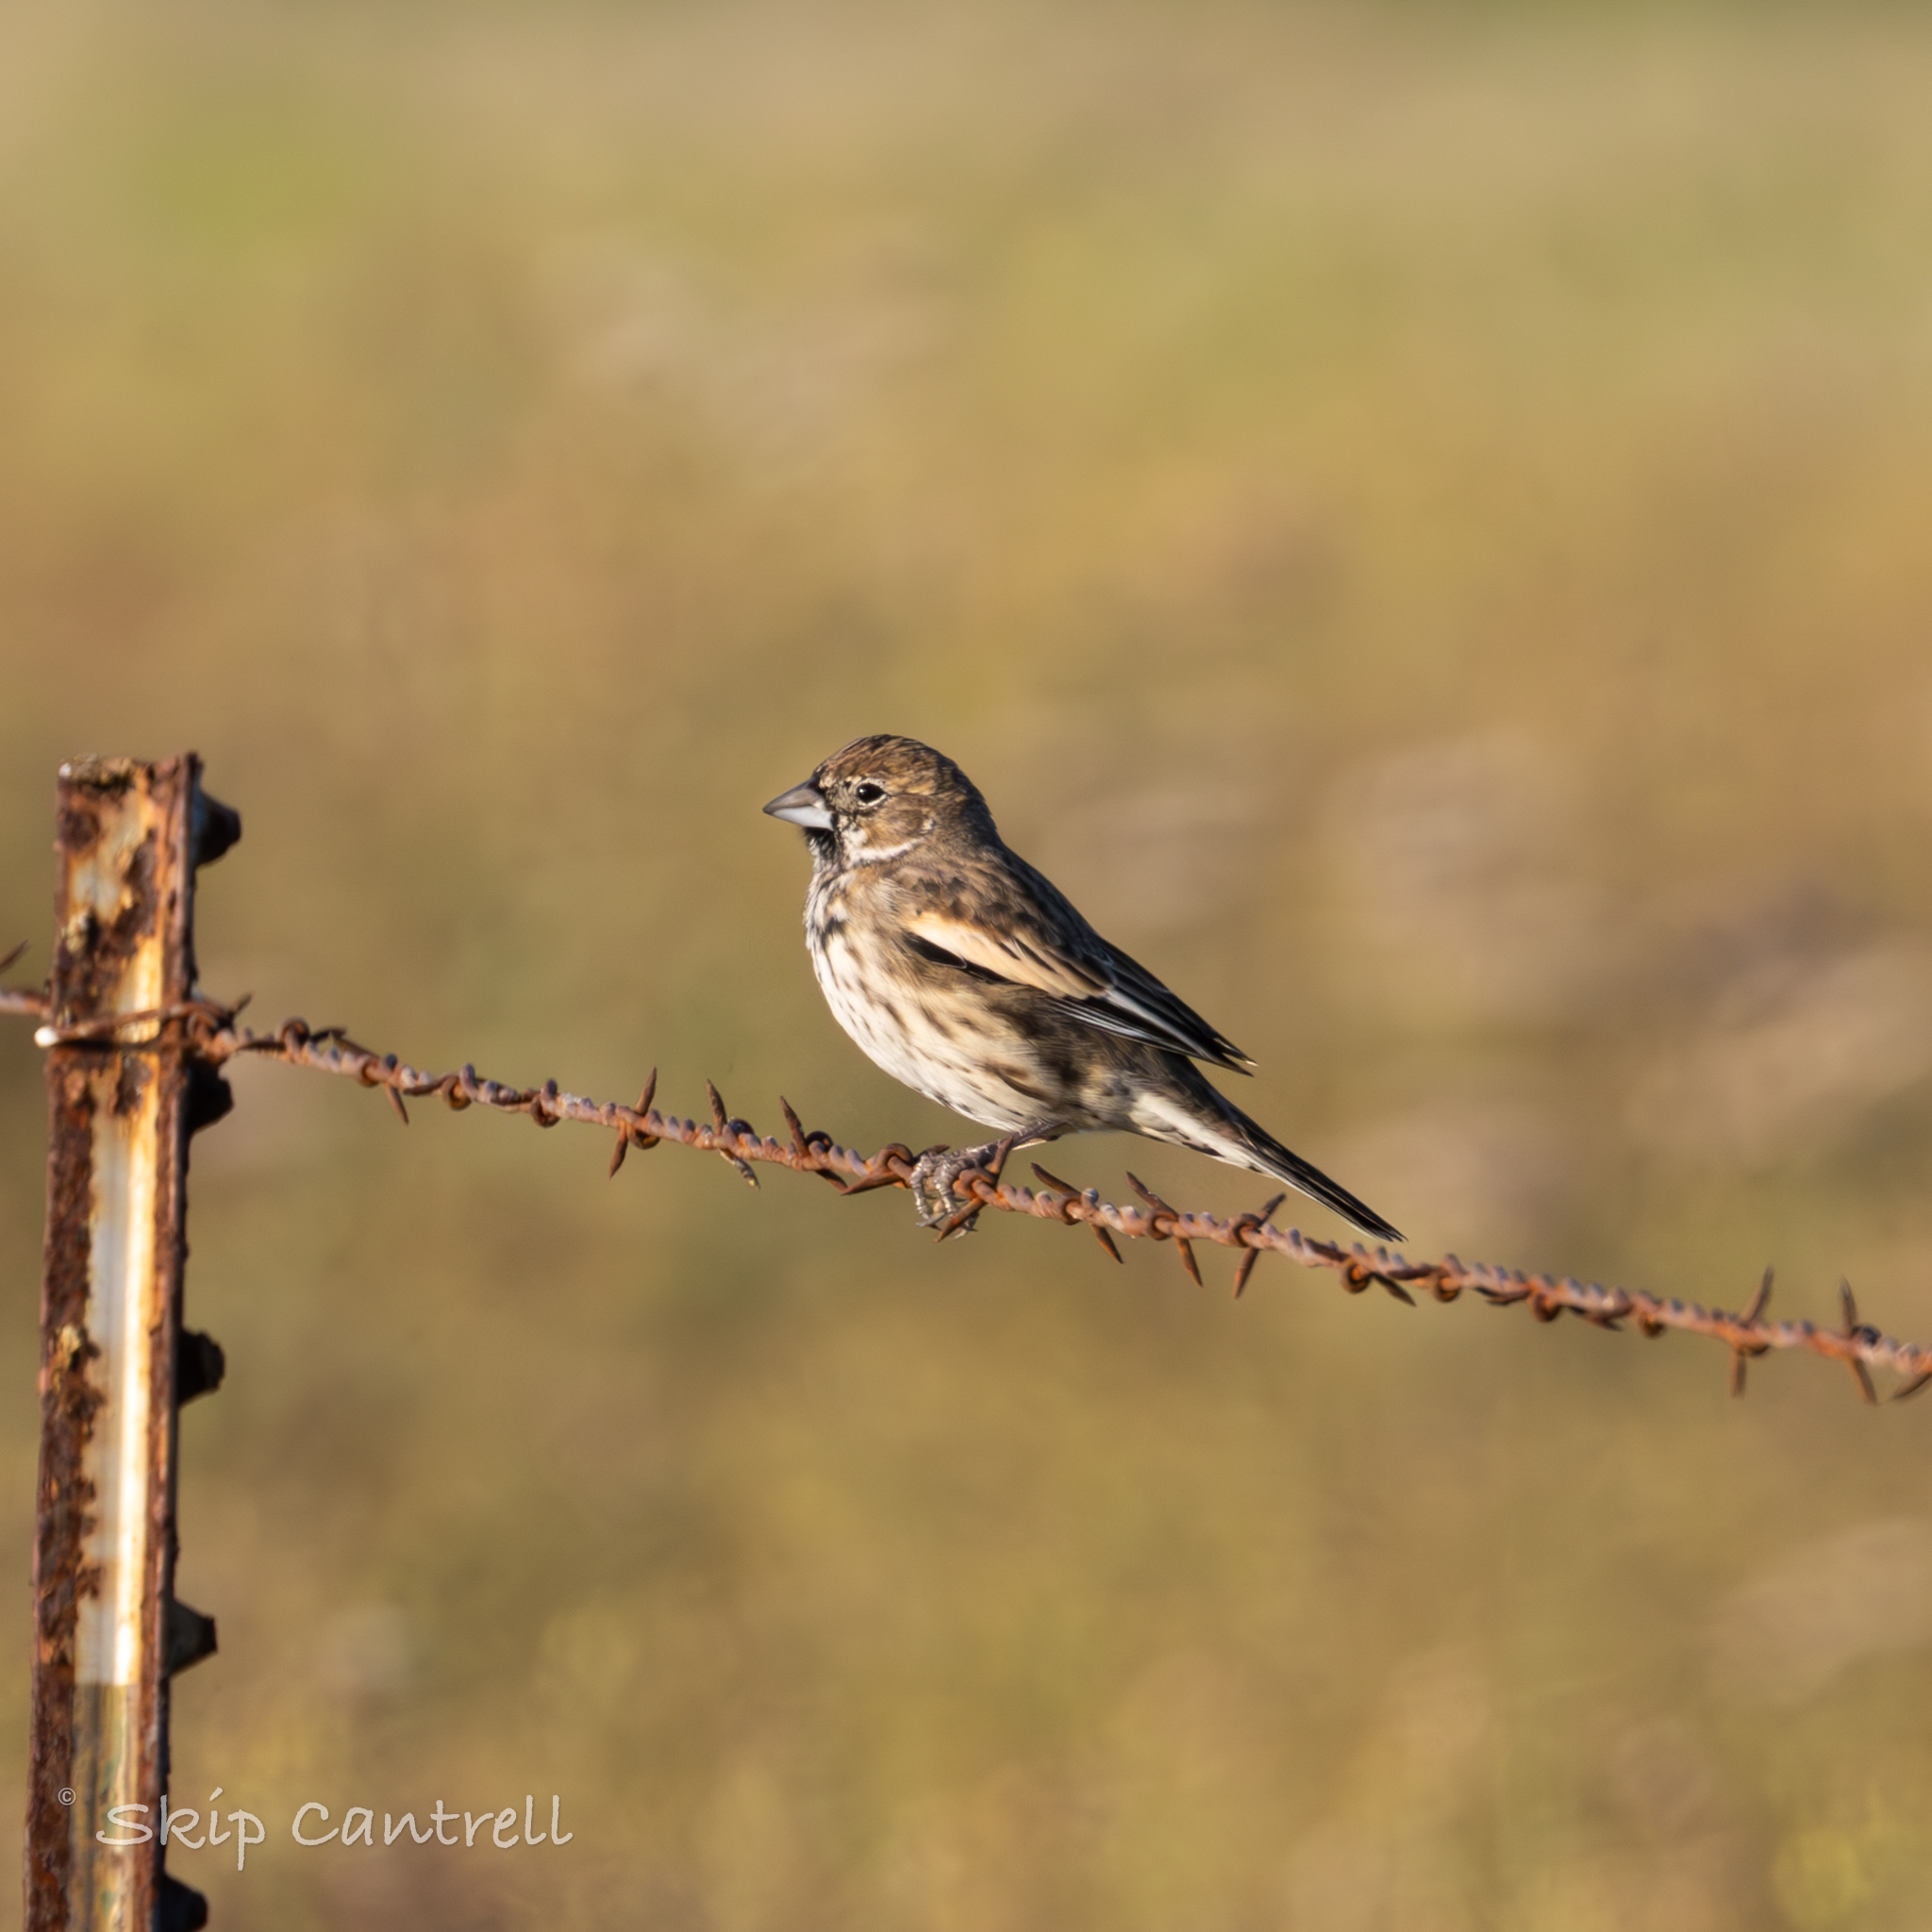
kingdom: Animalia
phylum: Chordata
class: Aves
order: Passeriformes
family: Passerellidae
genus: Calamospiza
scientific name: Calamospiza melanocorys
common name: Lark bunting
